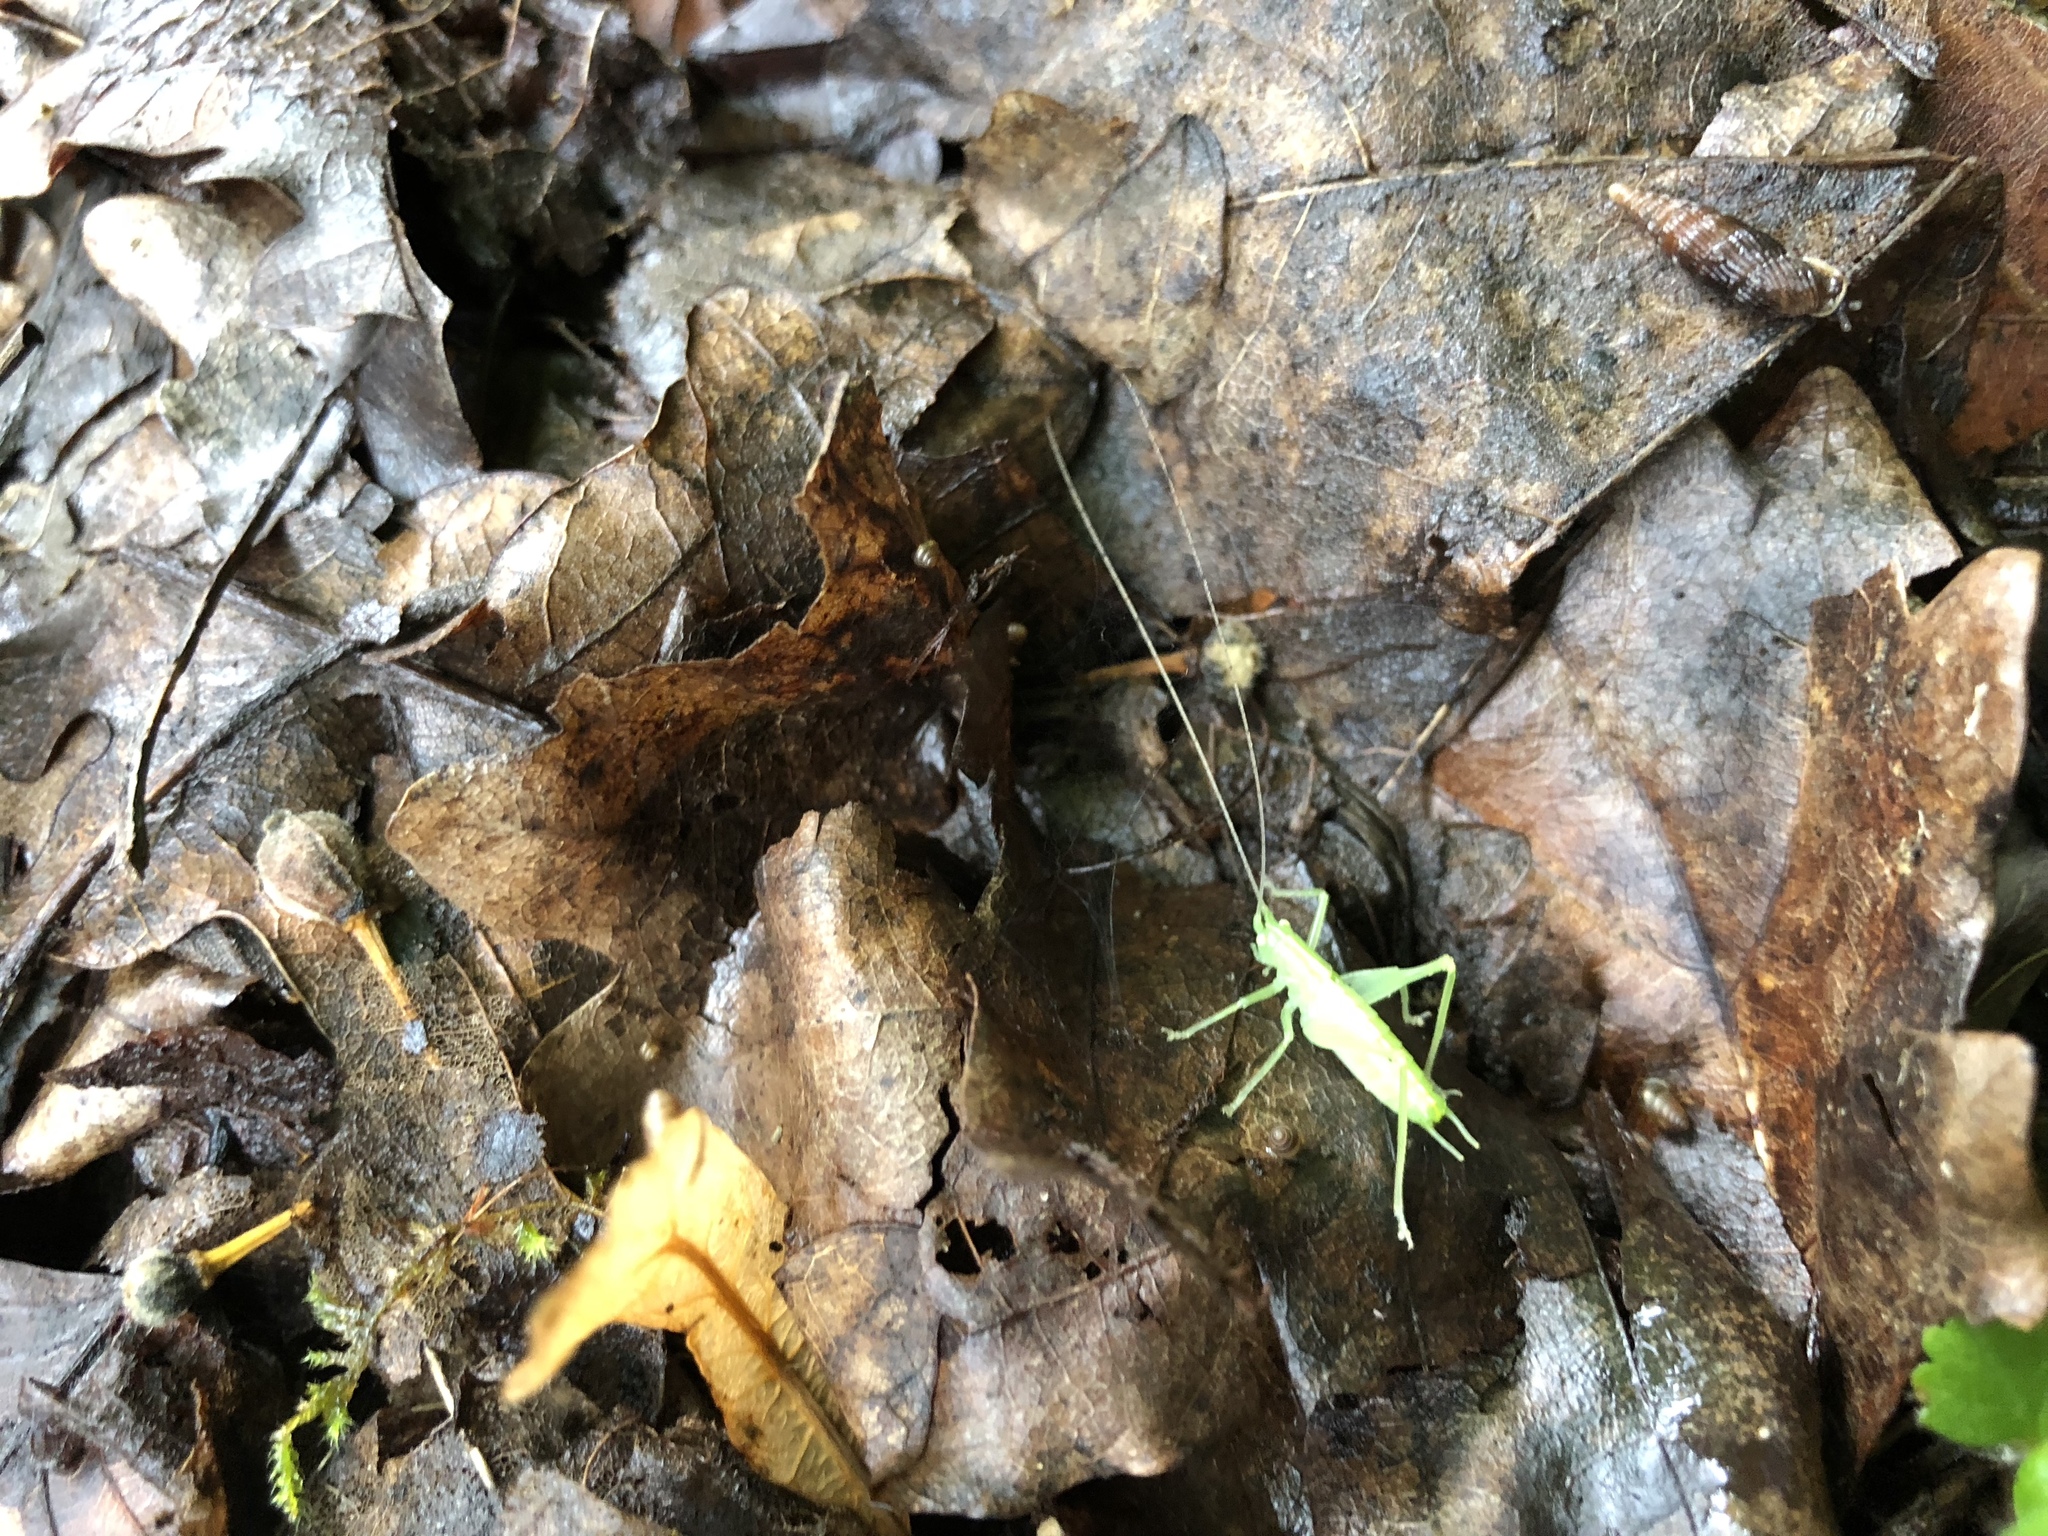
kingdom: Animalia
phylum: Arthropoda
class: Insecta
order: Orthoptera
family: Tettigoniidae
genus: Meconema
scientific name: Meconema meridionale
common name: Southern oak bush-cricket
